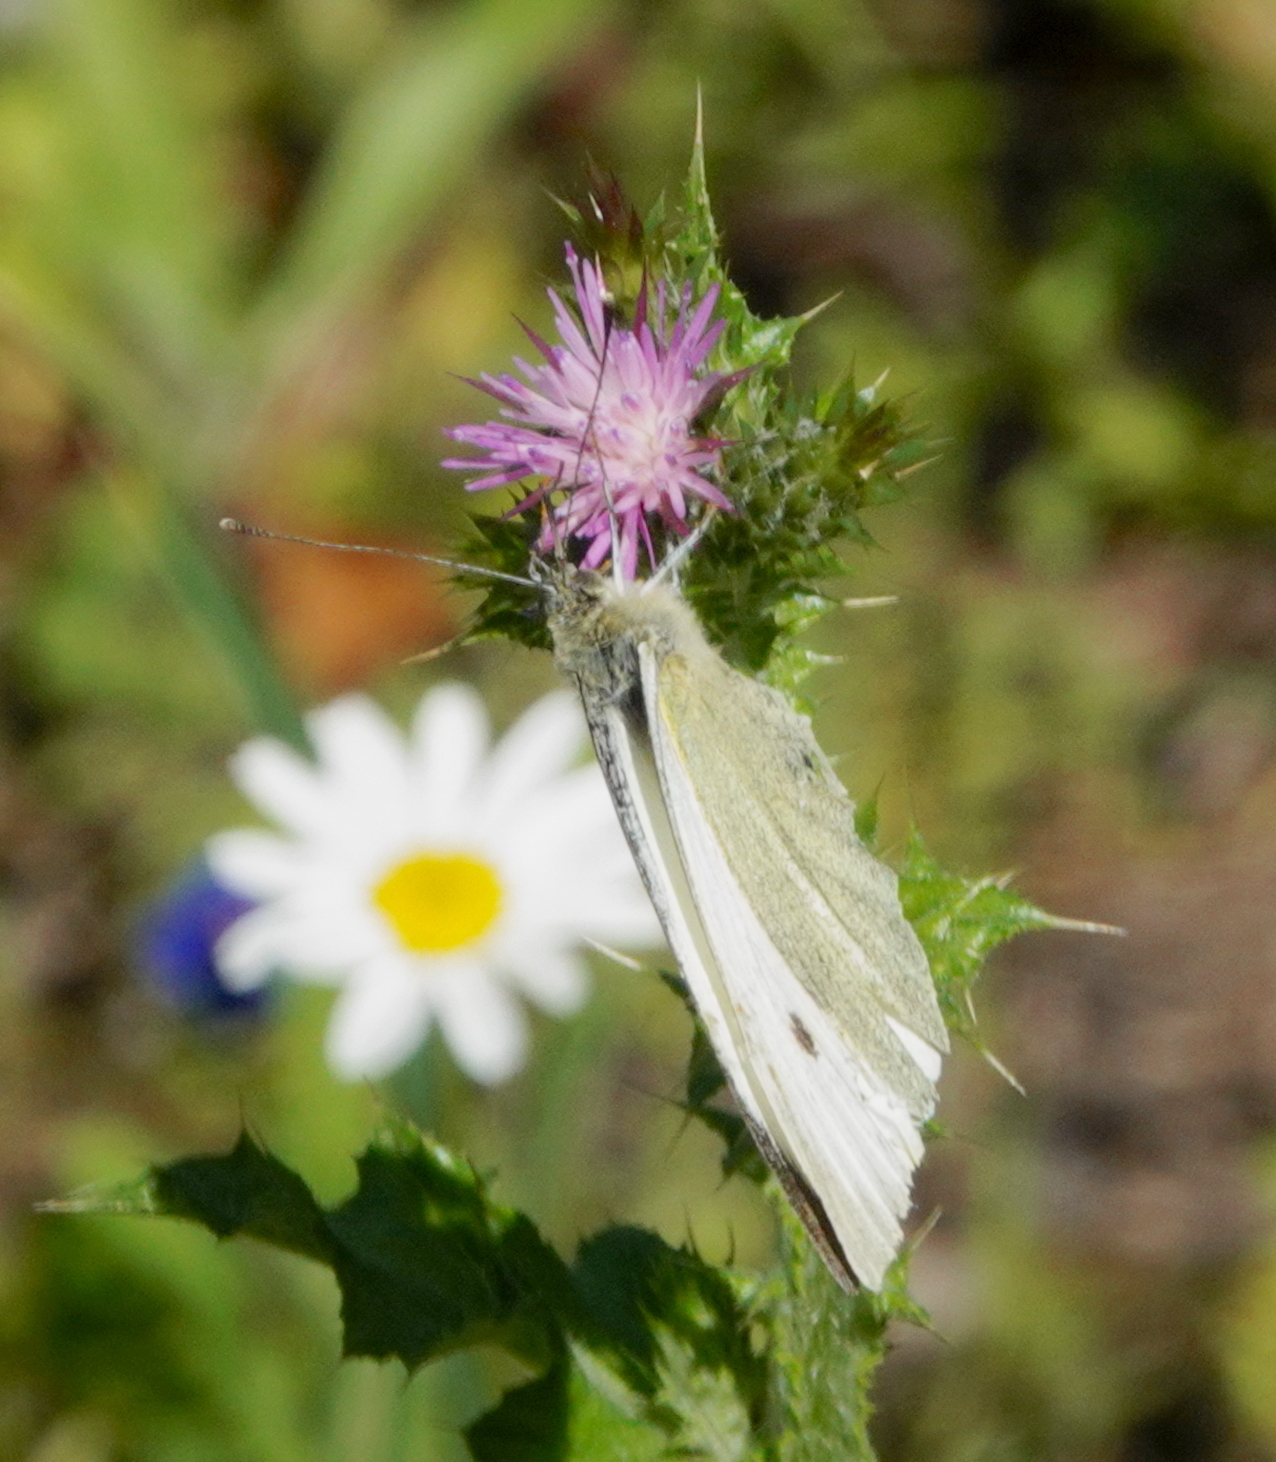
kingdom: Animalia
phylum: Arthropoda
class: Insecta
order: Lepidoptera
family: Pieridae
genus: Pieris
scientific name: Pieris rapae
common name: Small white
